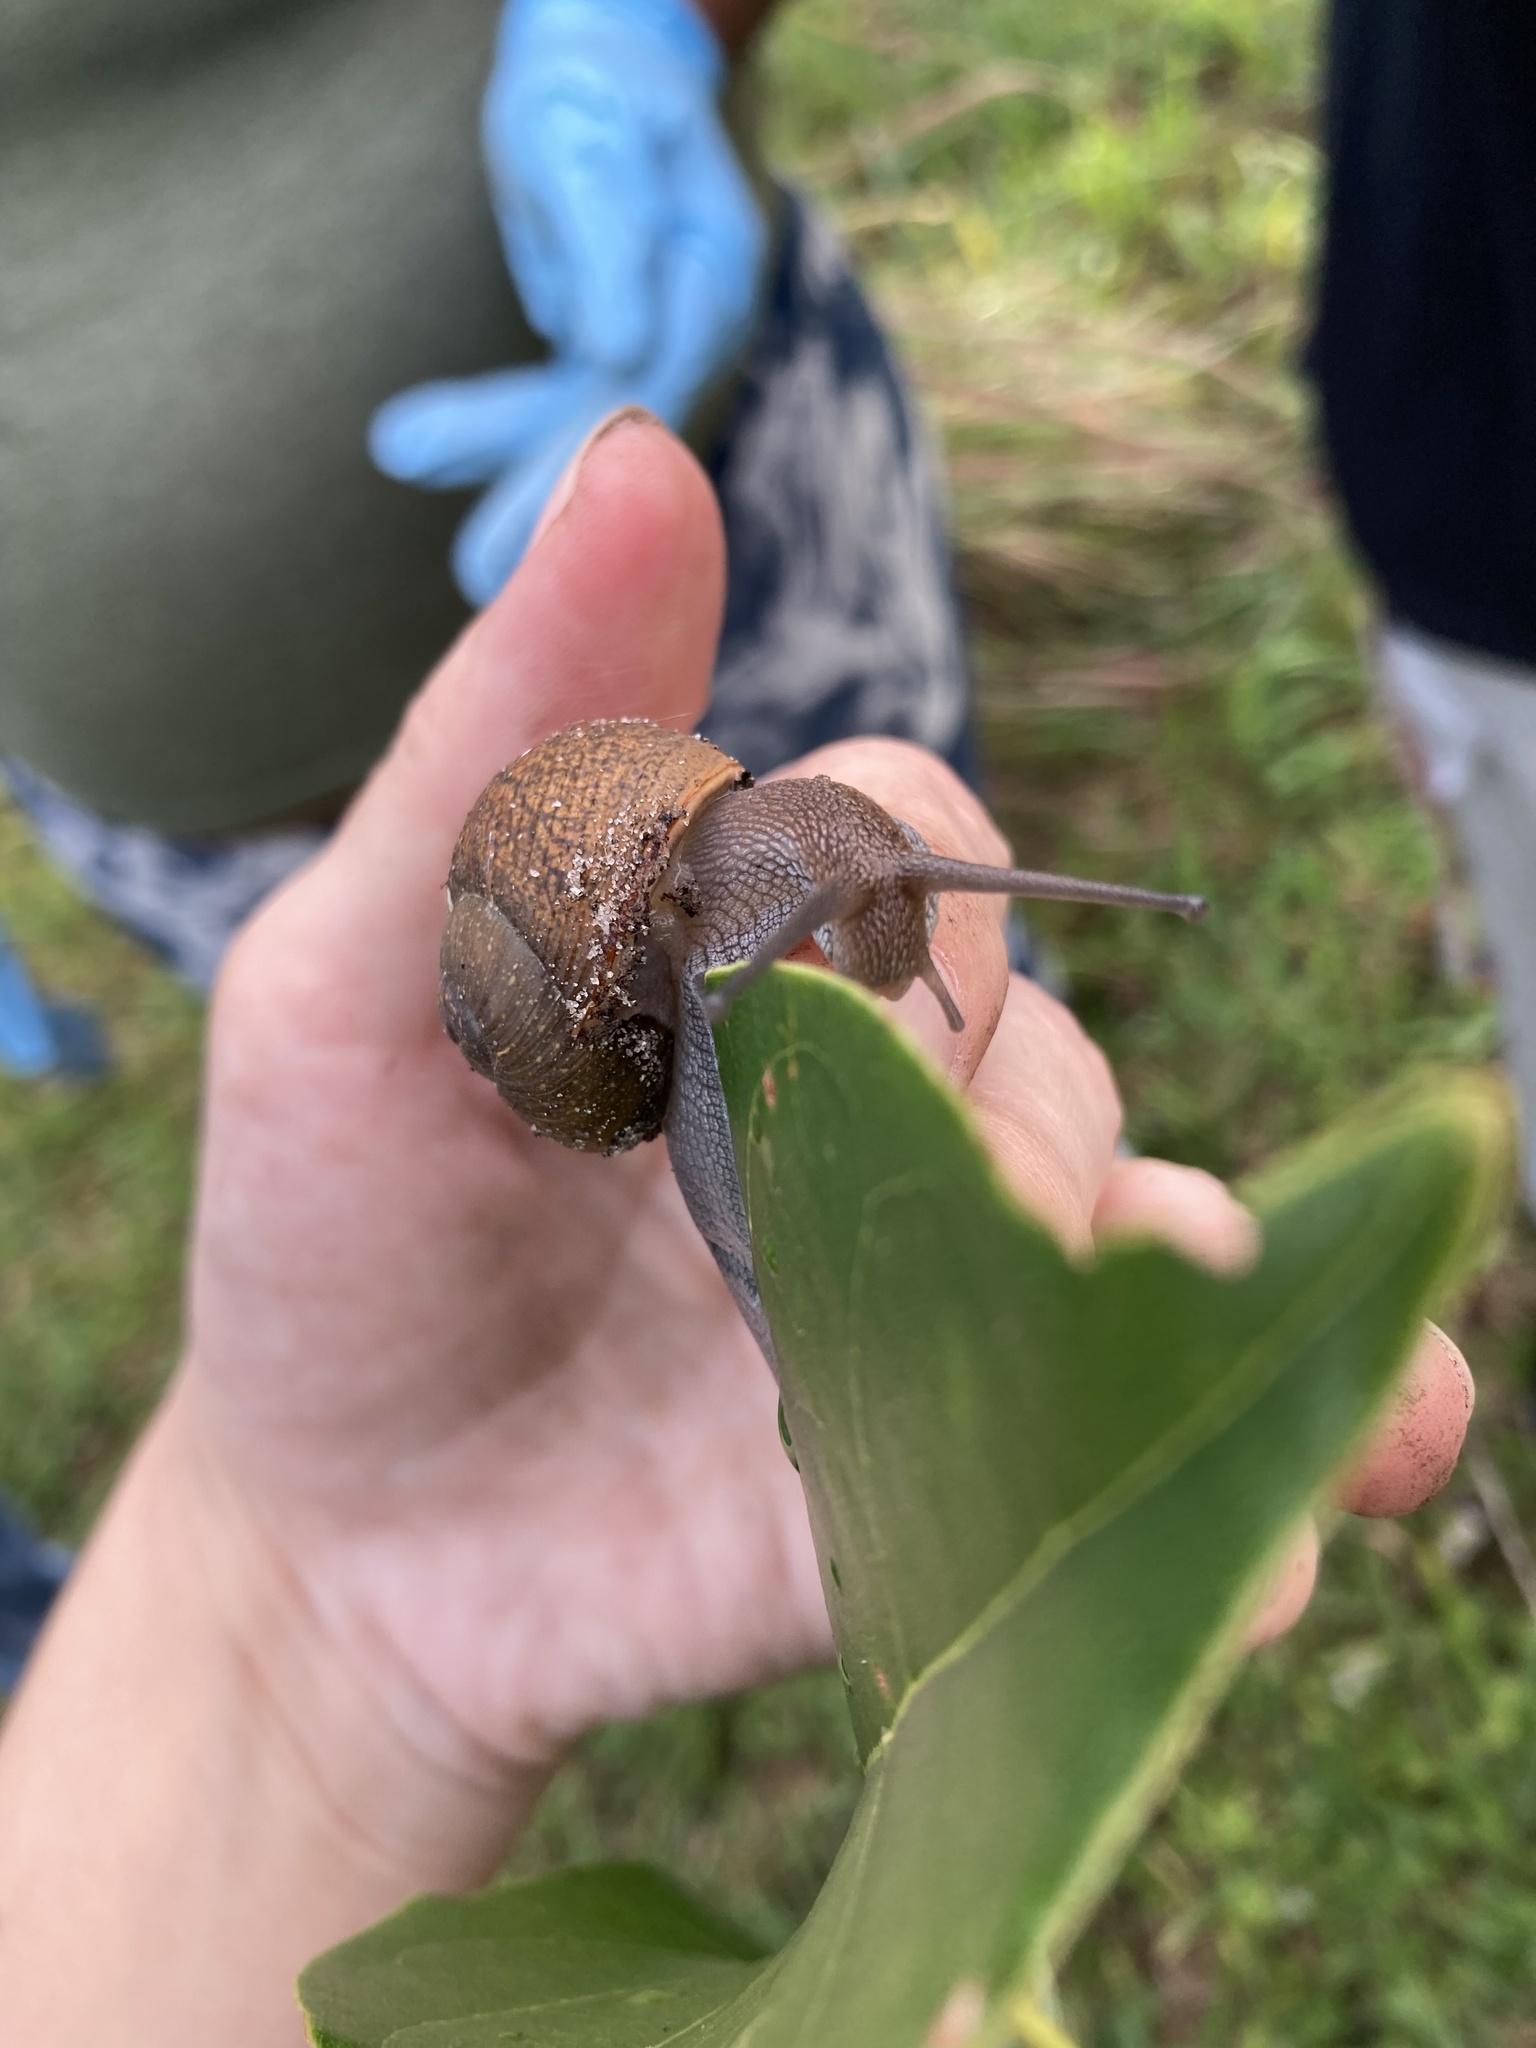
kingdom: Animalia
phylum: Mollusca
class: Gastropoda
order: Stylommatophora
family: Zachrysiidae
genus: Zachrysia
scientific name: Zachrysia provisoria
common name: Garden zachrysia
